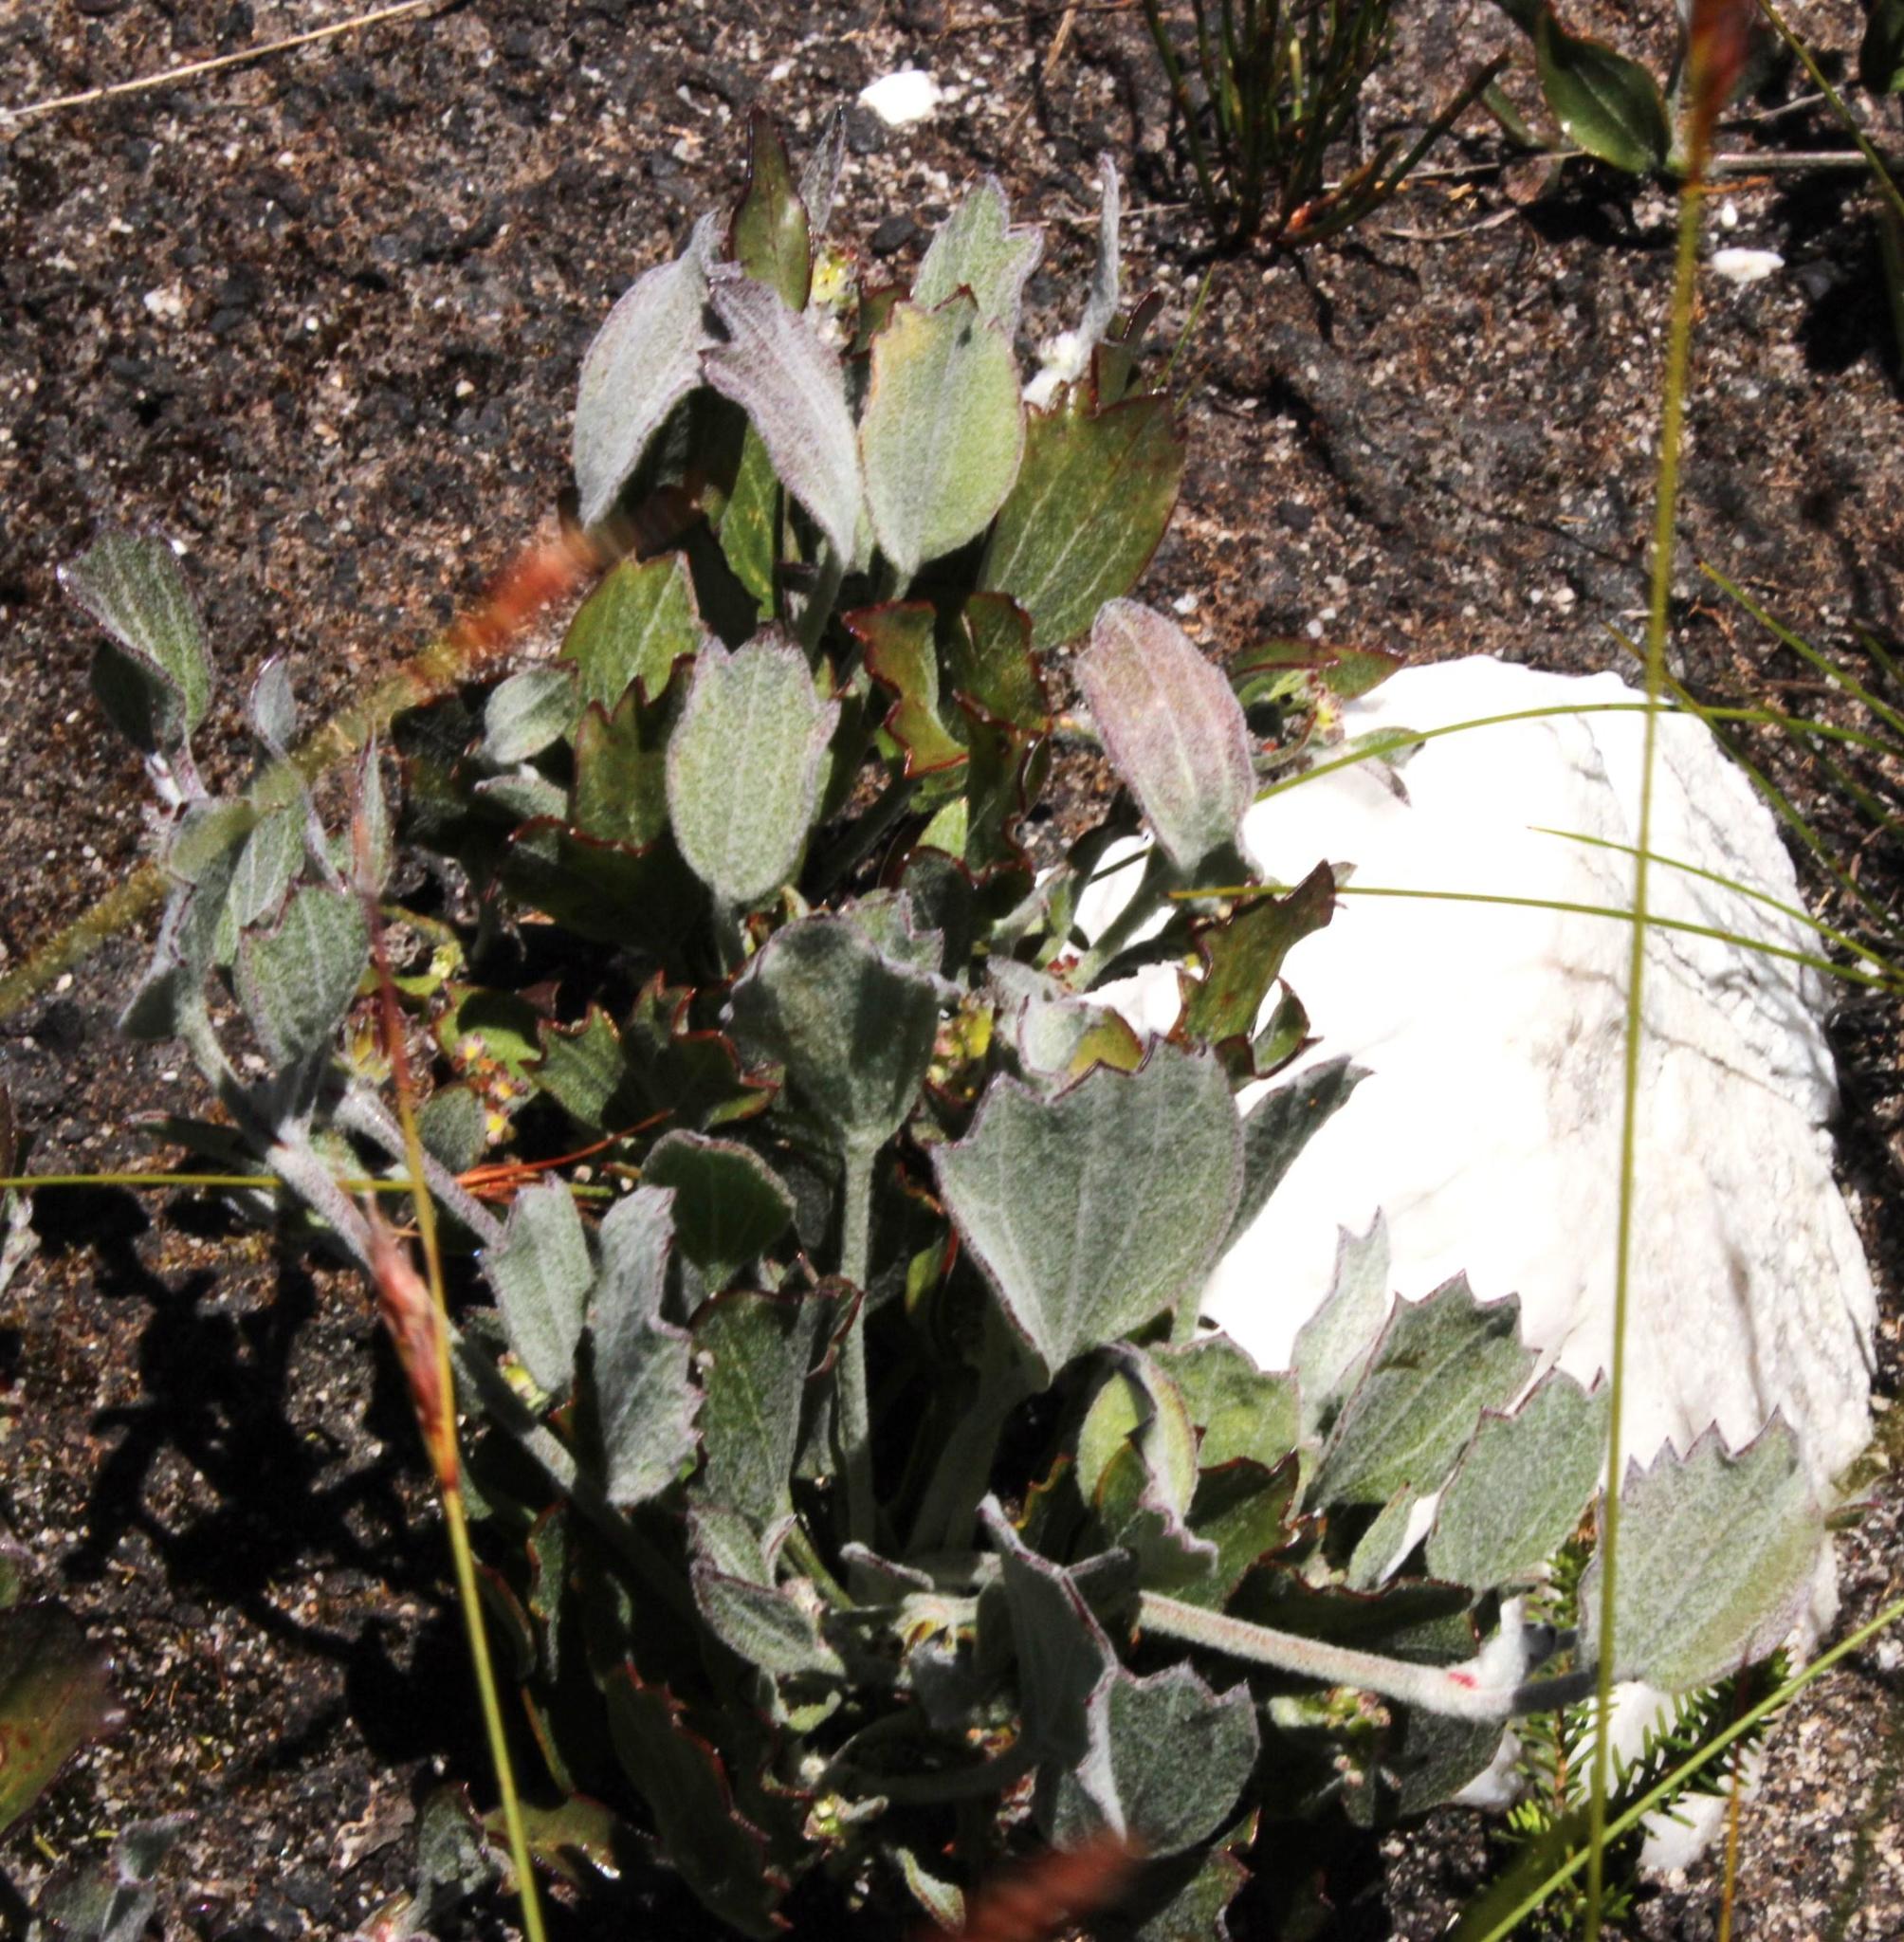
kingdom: Plantae
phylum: Tracheophyta
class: Magnoliopsida
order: Apiales
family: Apiaceae
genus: Centella
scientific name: Centella difformis
